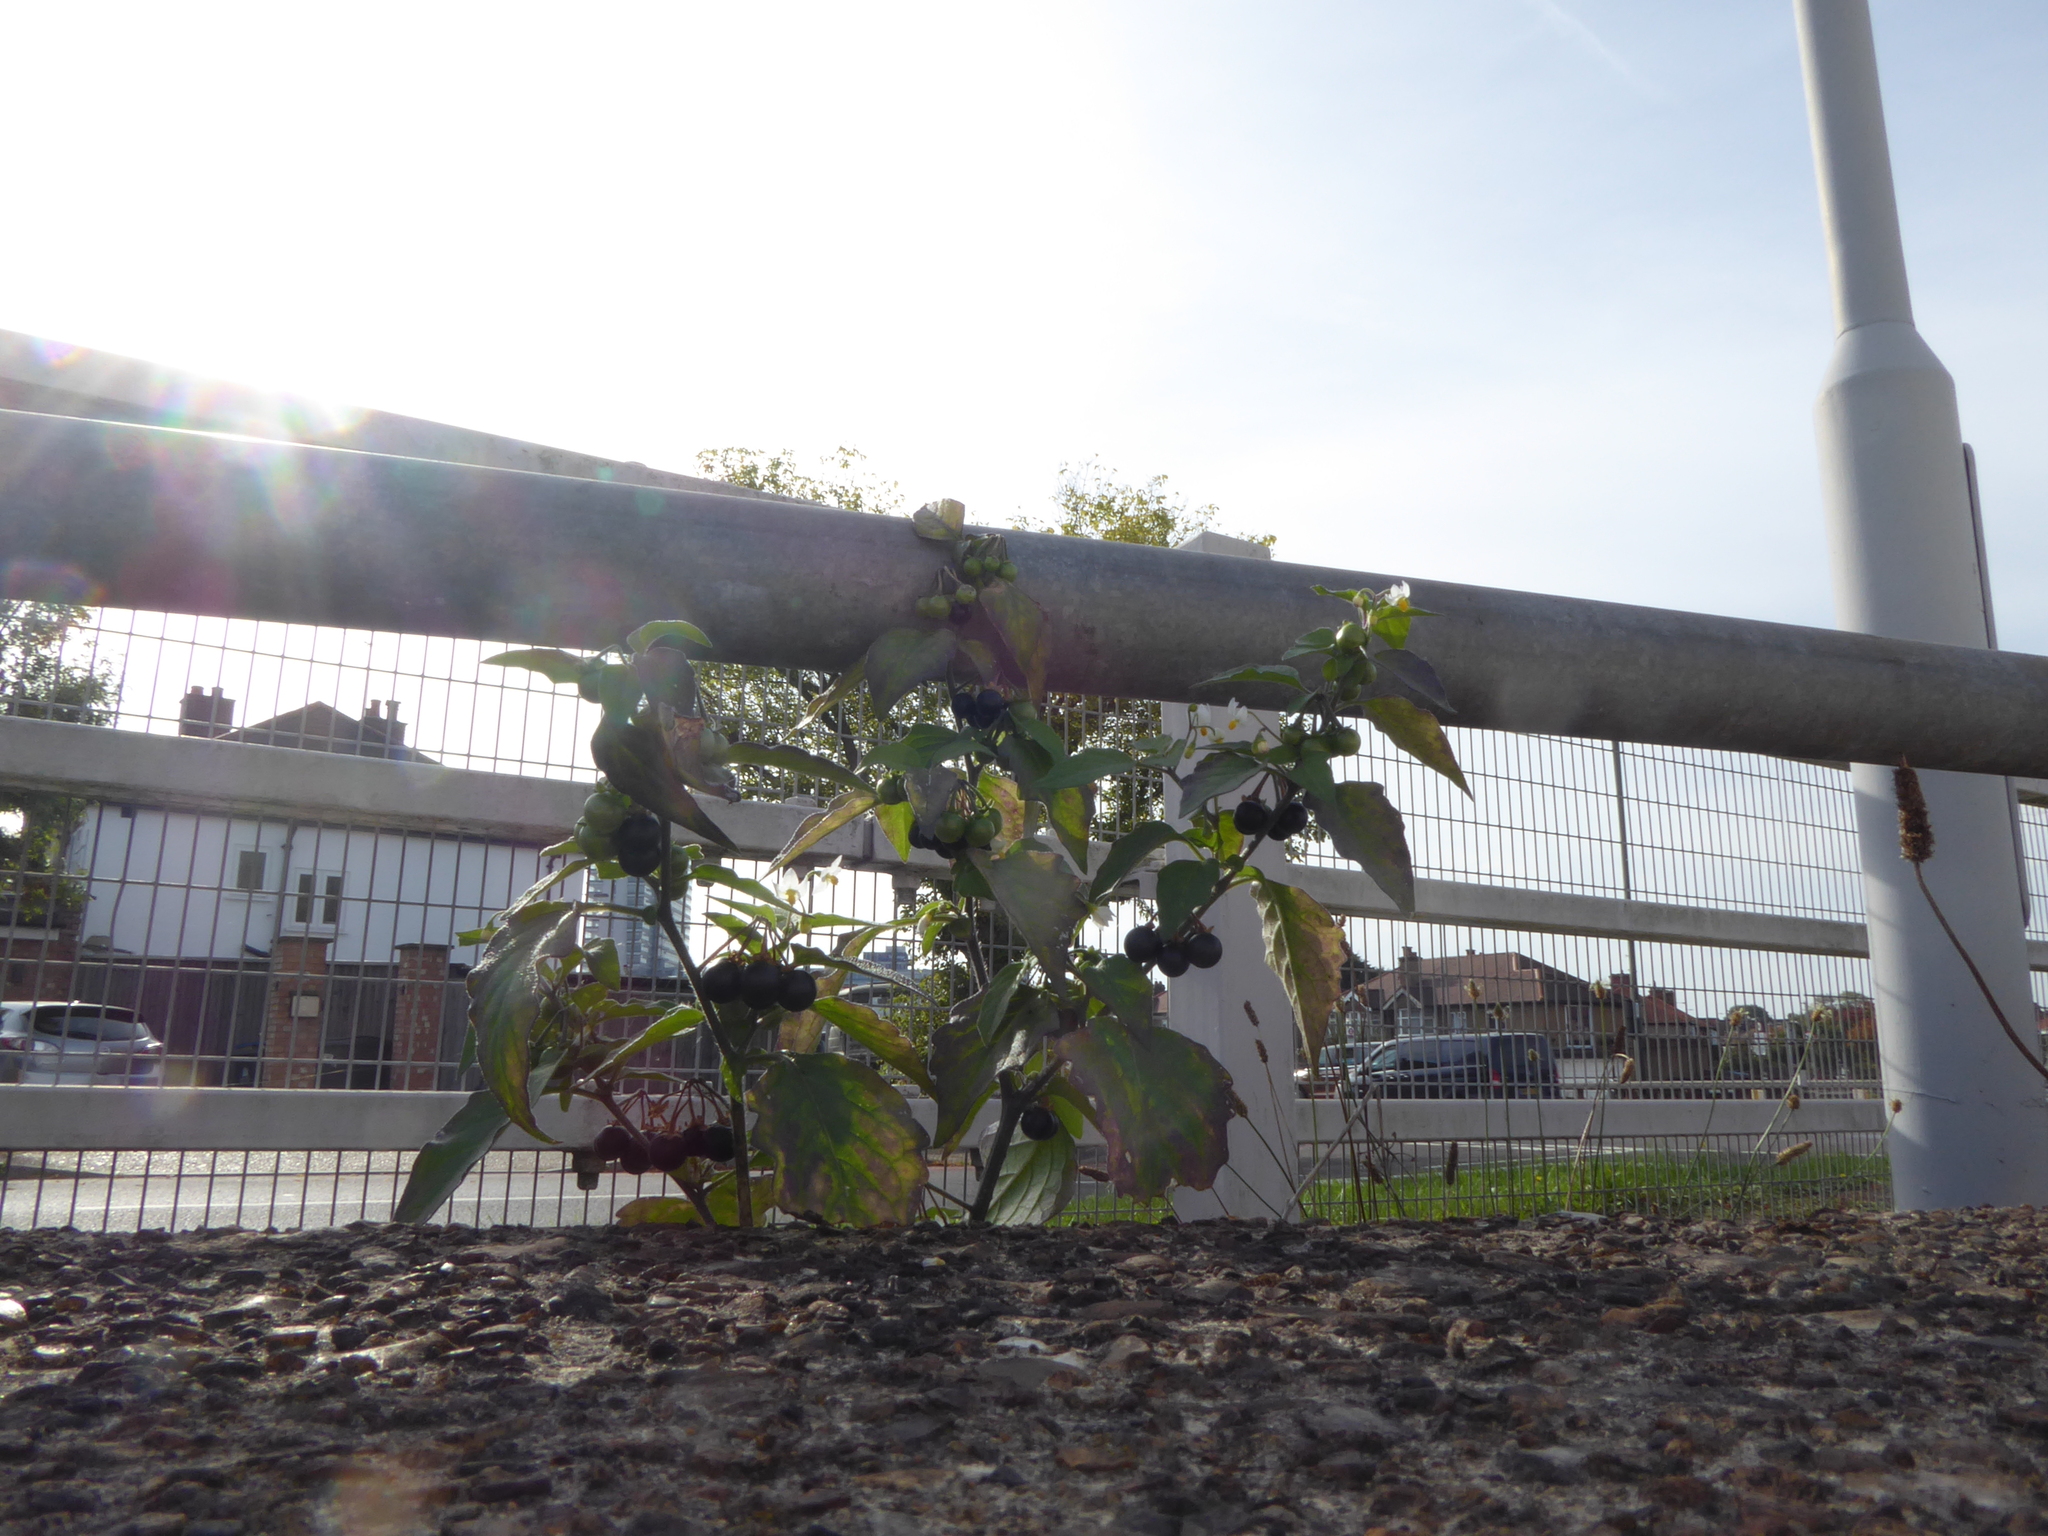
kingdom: Plantae
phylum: Tracheophyta
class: Magnoliopsida
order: Solanales
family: Solanaceae
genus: Solanum
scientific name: Solanum nigrum
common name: Black nightshade
